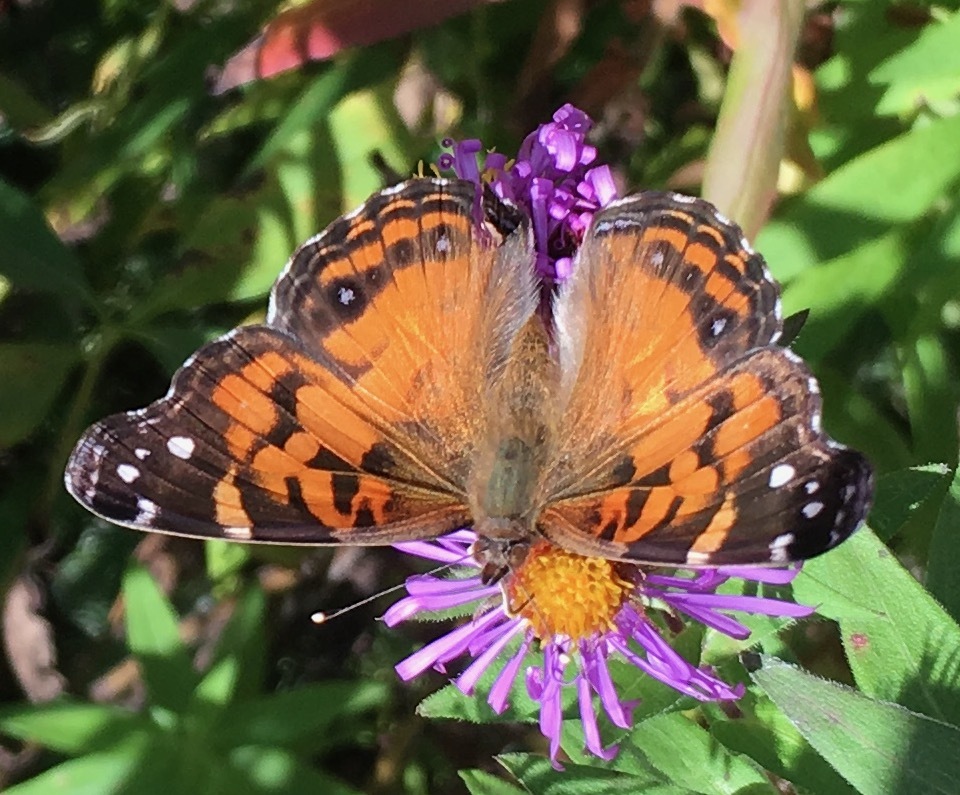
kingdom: Animalia
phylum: Arthropoda
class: Insecta
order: Lepidoptera
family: Nymphalidae
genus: Vanessa
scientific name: Vanessa virginiensis
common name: American lady
